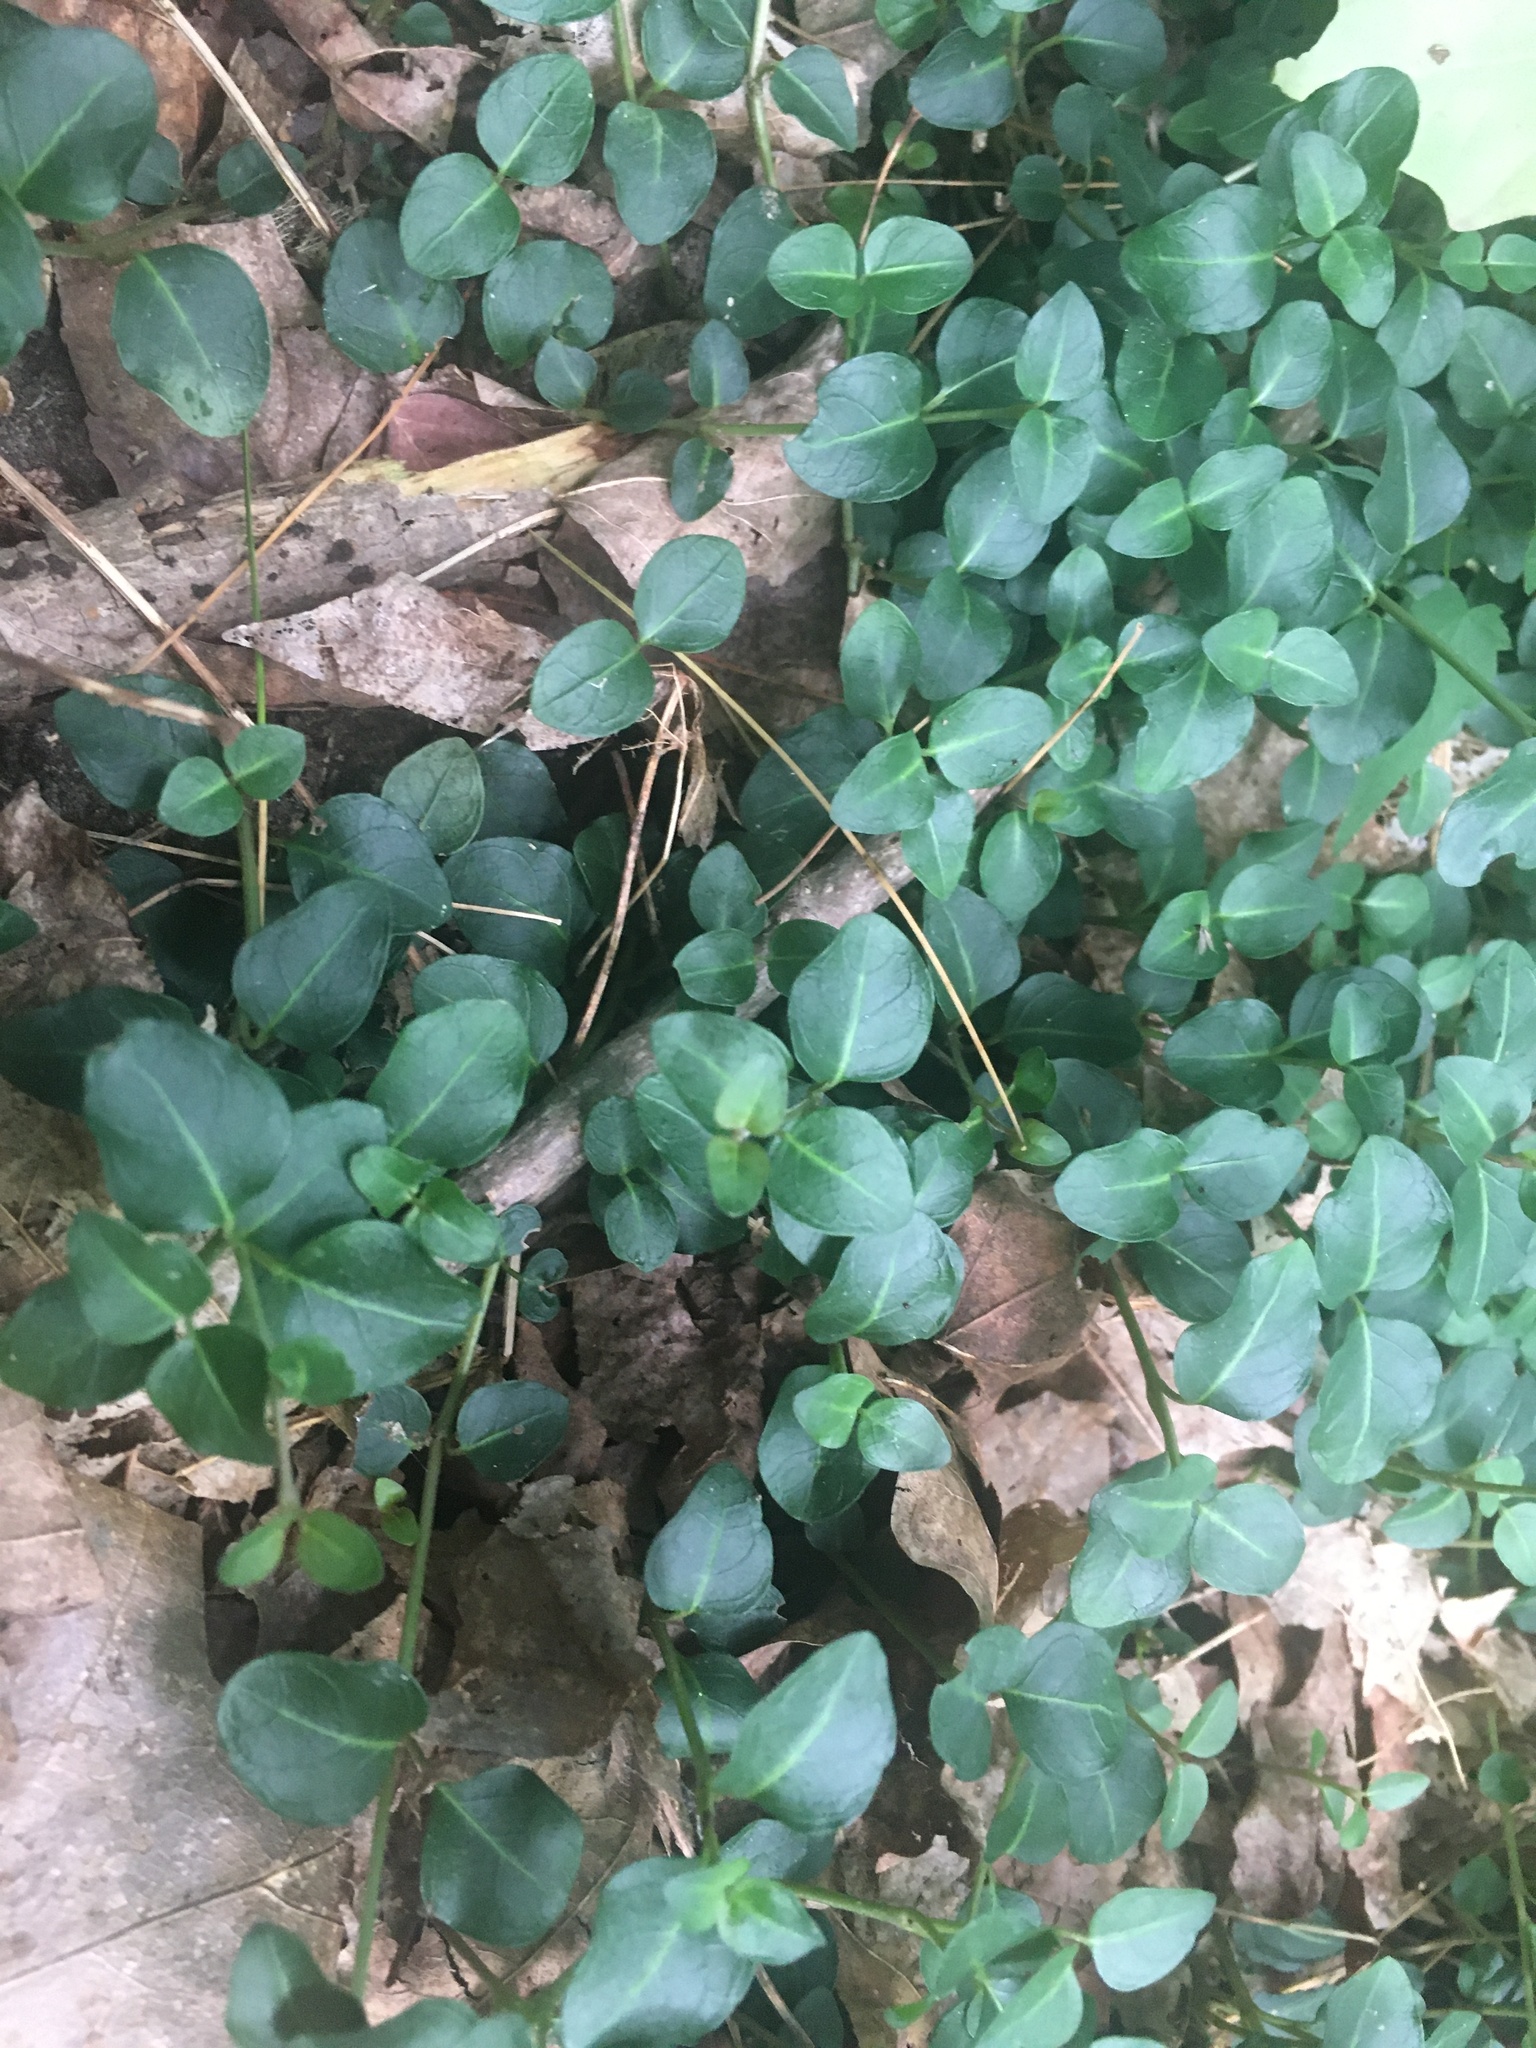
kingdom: Plantae
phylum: Tracheophyta
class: Magnoliopsida
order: Gentianales
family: Rubiaceae
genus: Mitchella
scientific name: Mitchella repens
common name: Partridge-berry
